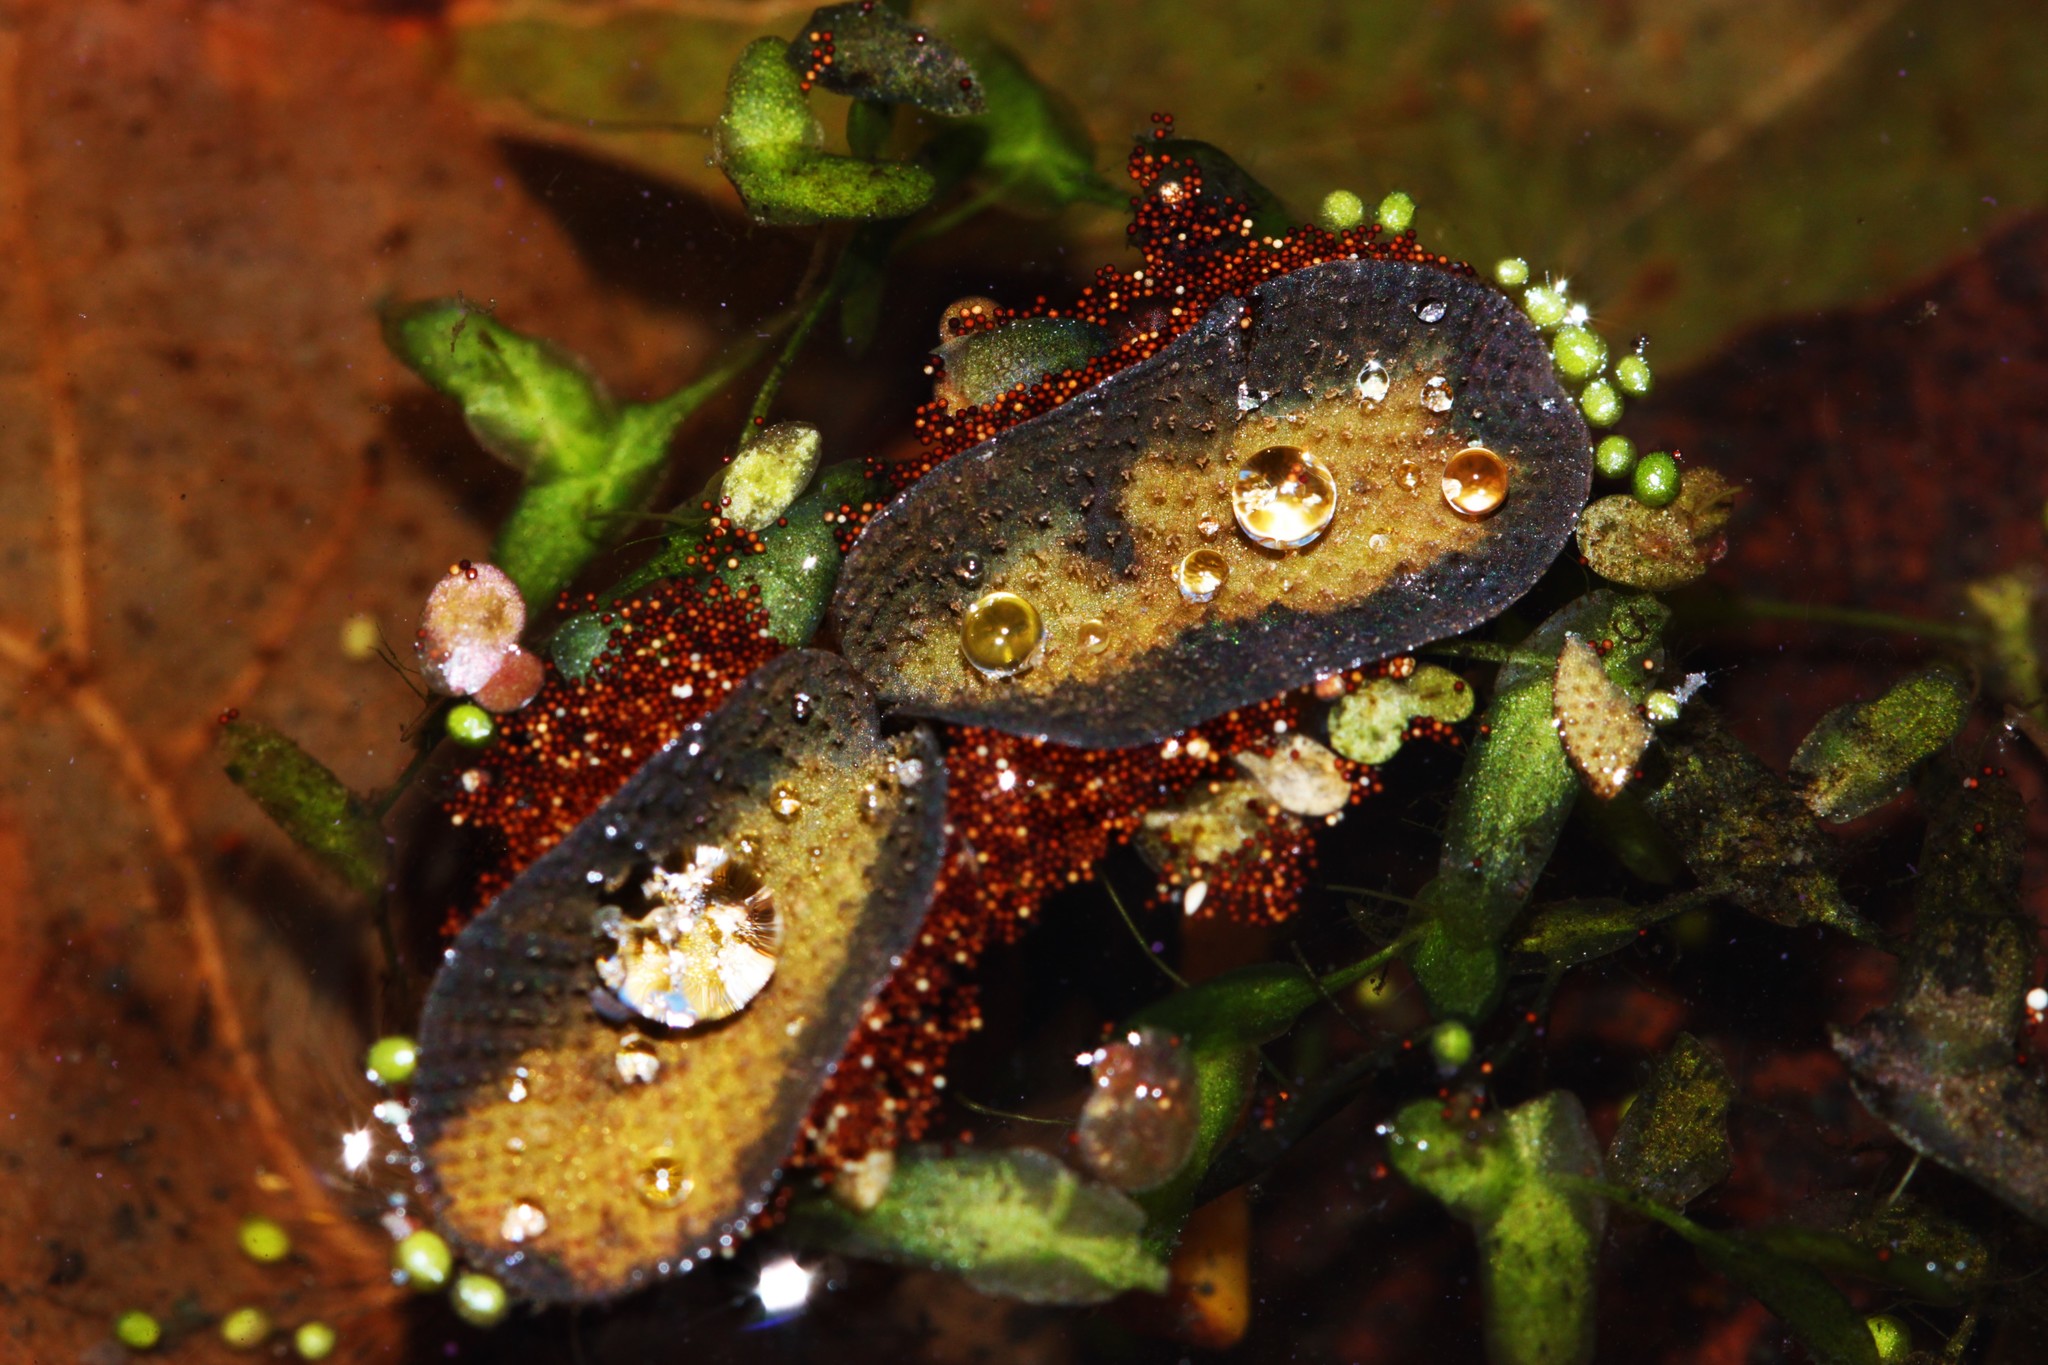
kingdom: Plantae
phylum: Tracheophyta
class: Polypodiopsida
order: Salviniales
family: Salviniaceae
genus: Salvinia
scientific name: Salvinia natans
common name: Floating fern
